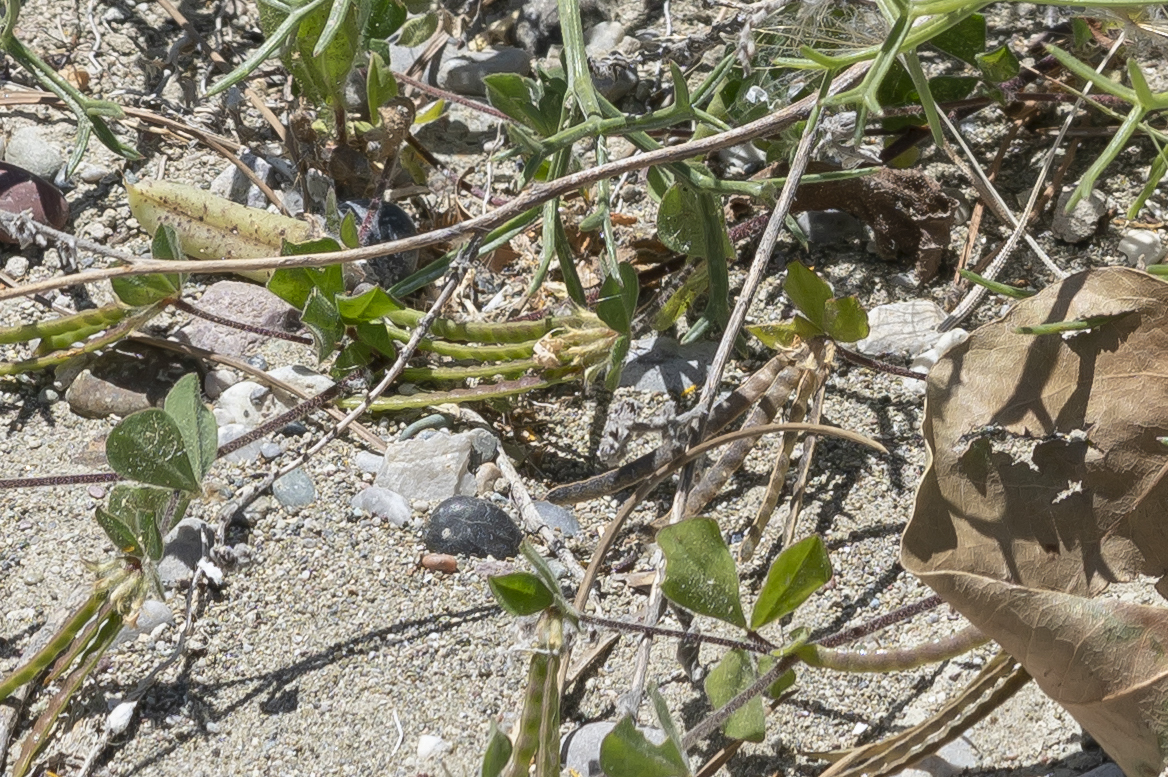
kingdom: Plantae
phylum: Tracheophyta
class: Magnoliopsida
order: Fabales
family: Fabaceae
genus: Lotus
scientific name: Lotus ornithopodioides
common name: Southern bird's-foot trefoil
